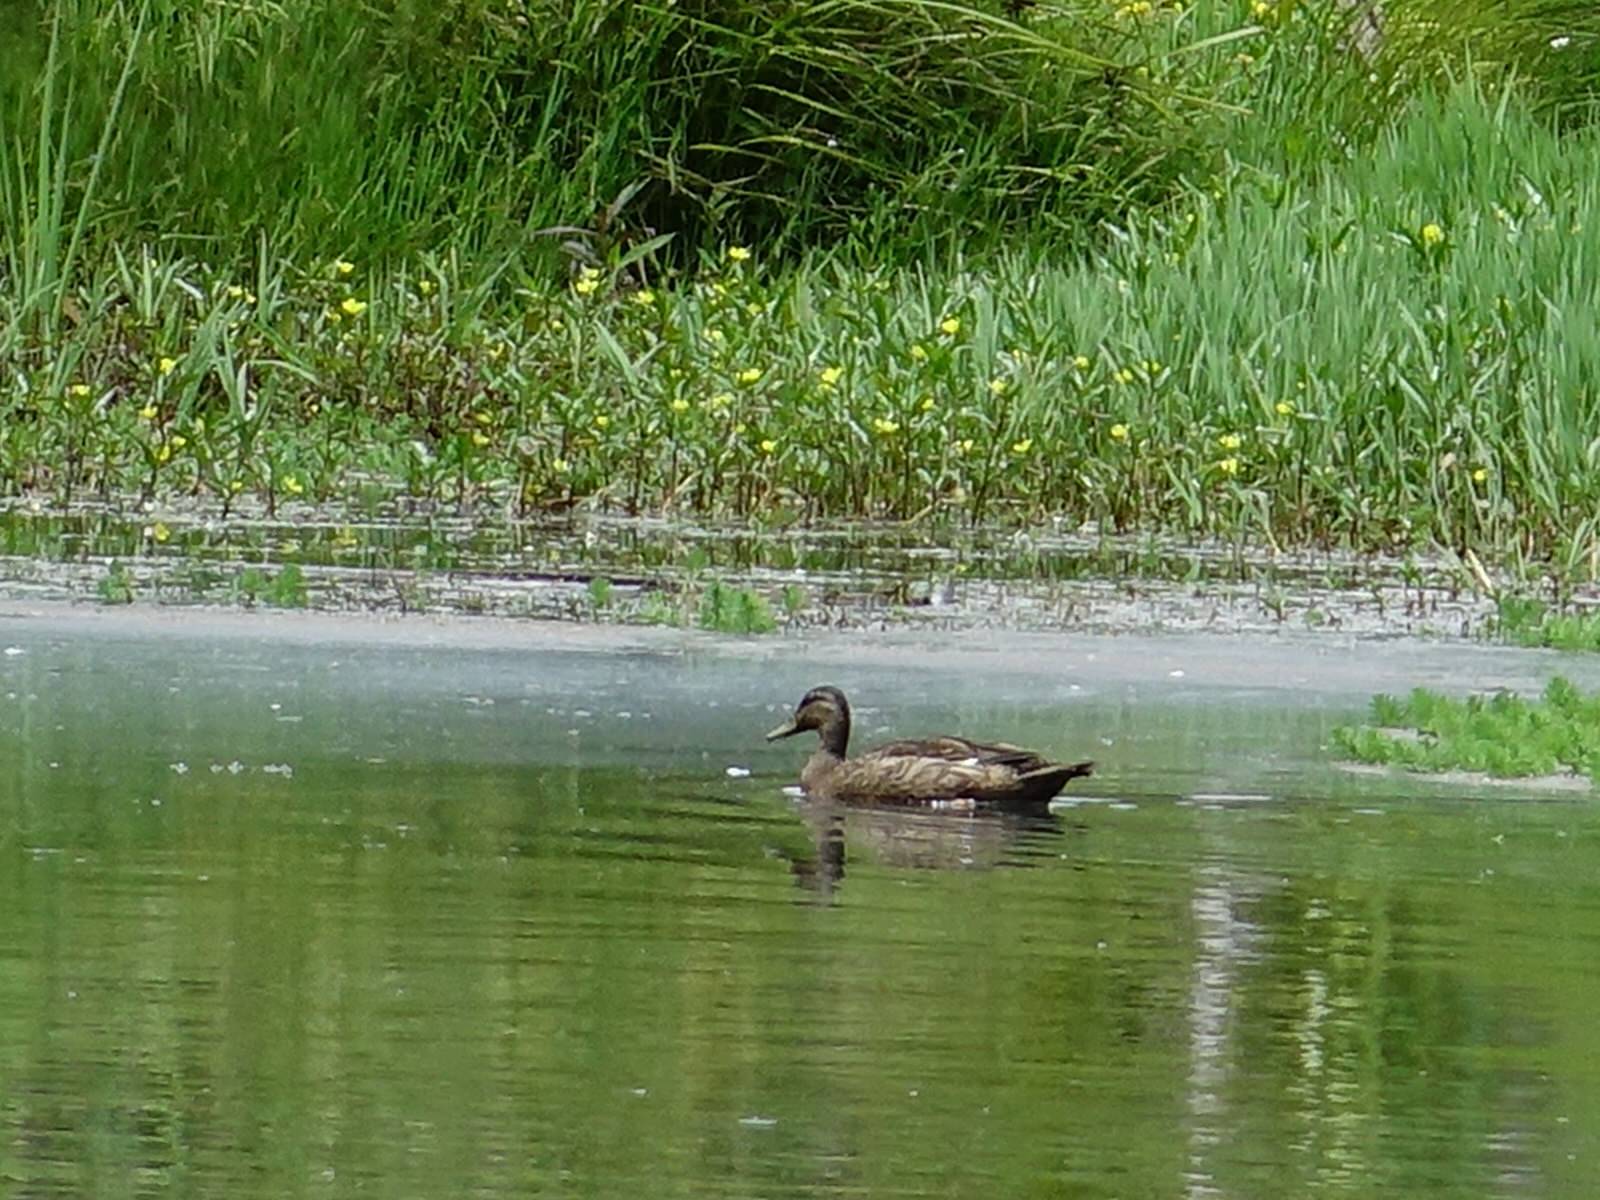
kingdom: Animalia
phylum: Chordata
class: Aves
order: Anseriformes
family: Anatidae
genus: Anas
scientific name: Anas platyrhynchos
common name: Mallard
